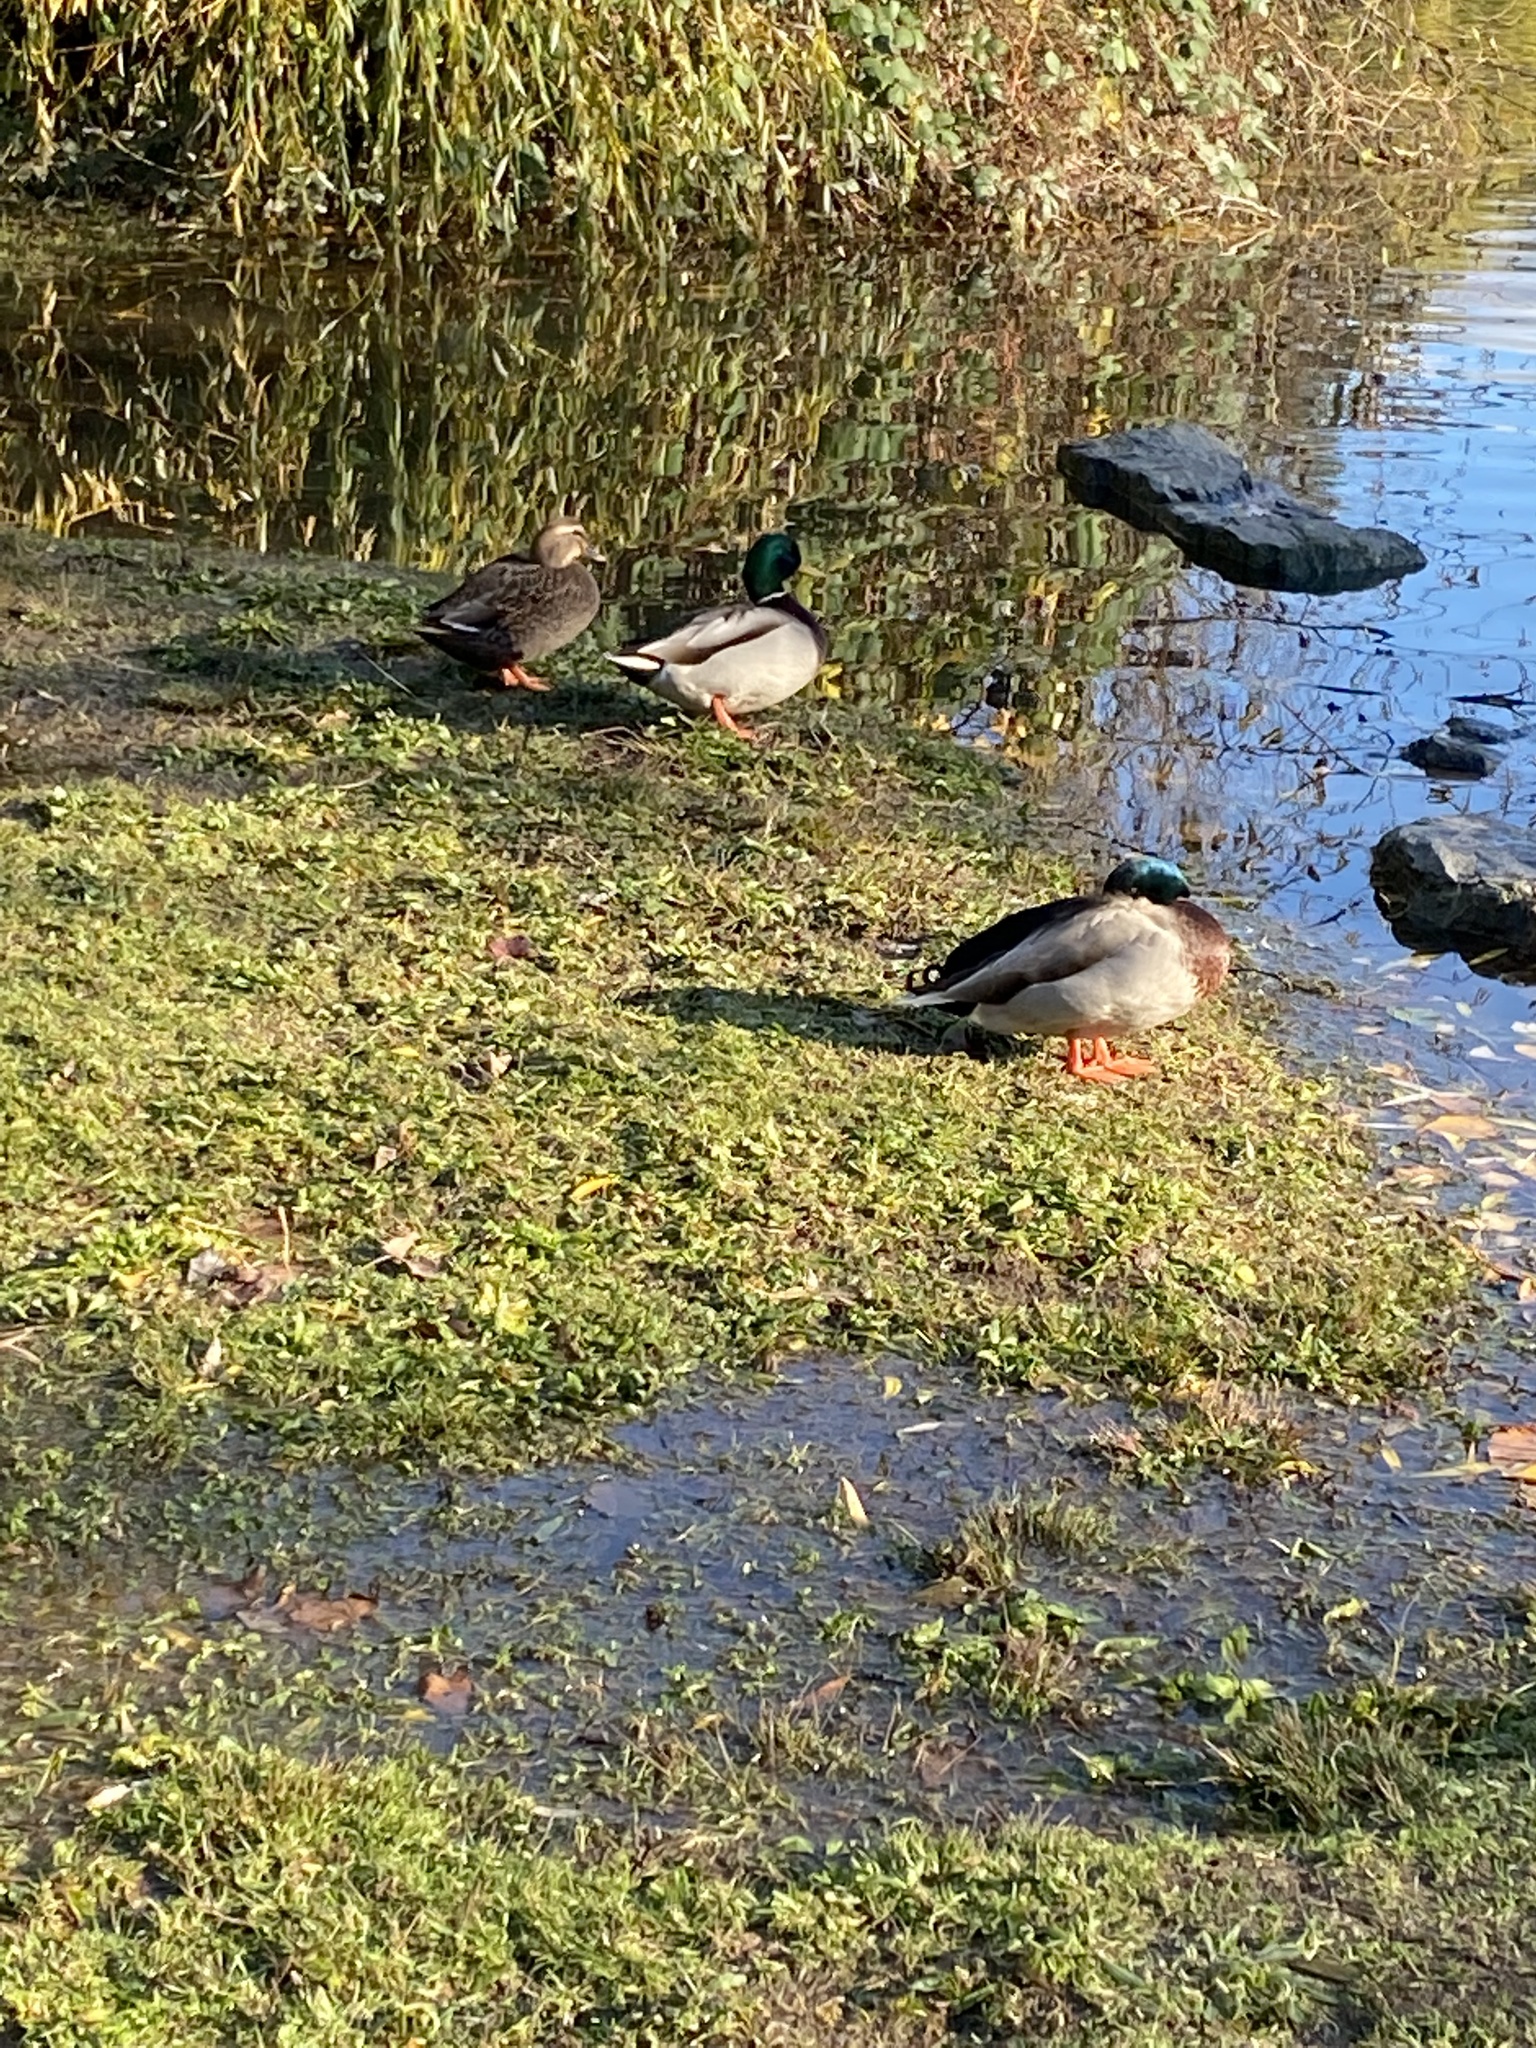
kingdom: Animalia
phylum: Chordata
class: Aves
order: Anseriformes
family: Anatidae
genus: Anas
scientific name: Anas platyrhynchos
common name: Mallard
